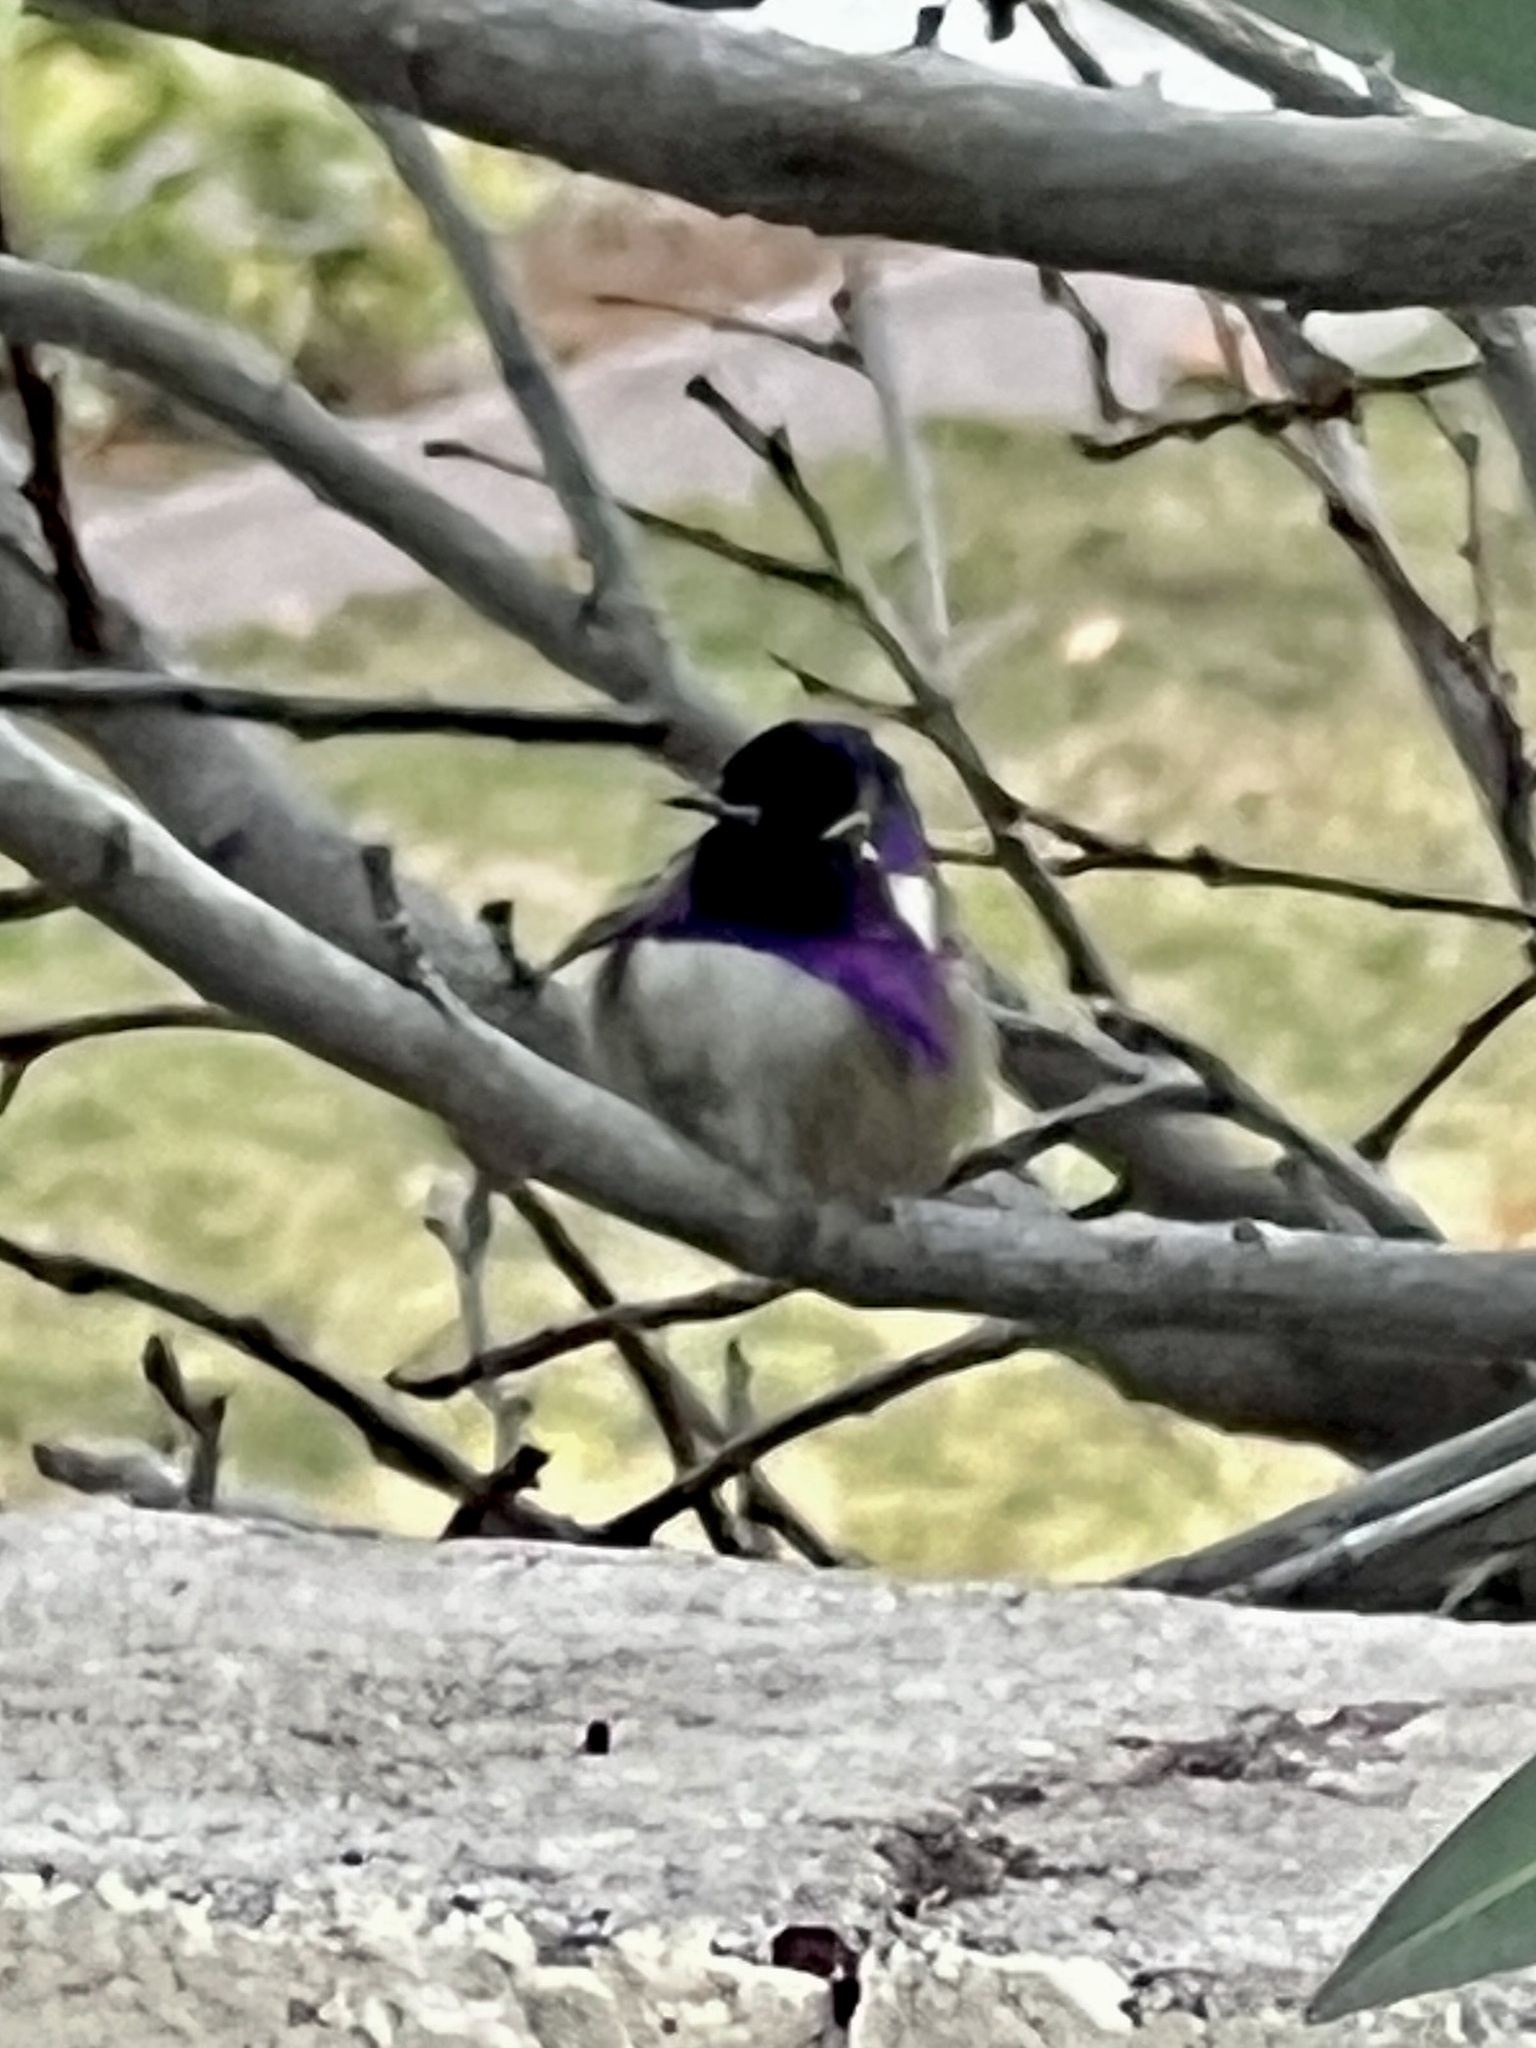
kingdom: Animalia
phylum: Chordata
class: Aves
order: Apodiformes
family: Trochilidae
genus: Calypte
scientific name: Calypte costae
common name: Costa's hummingbird
